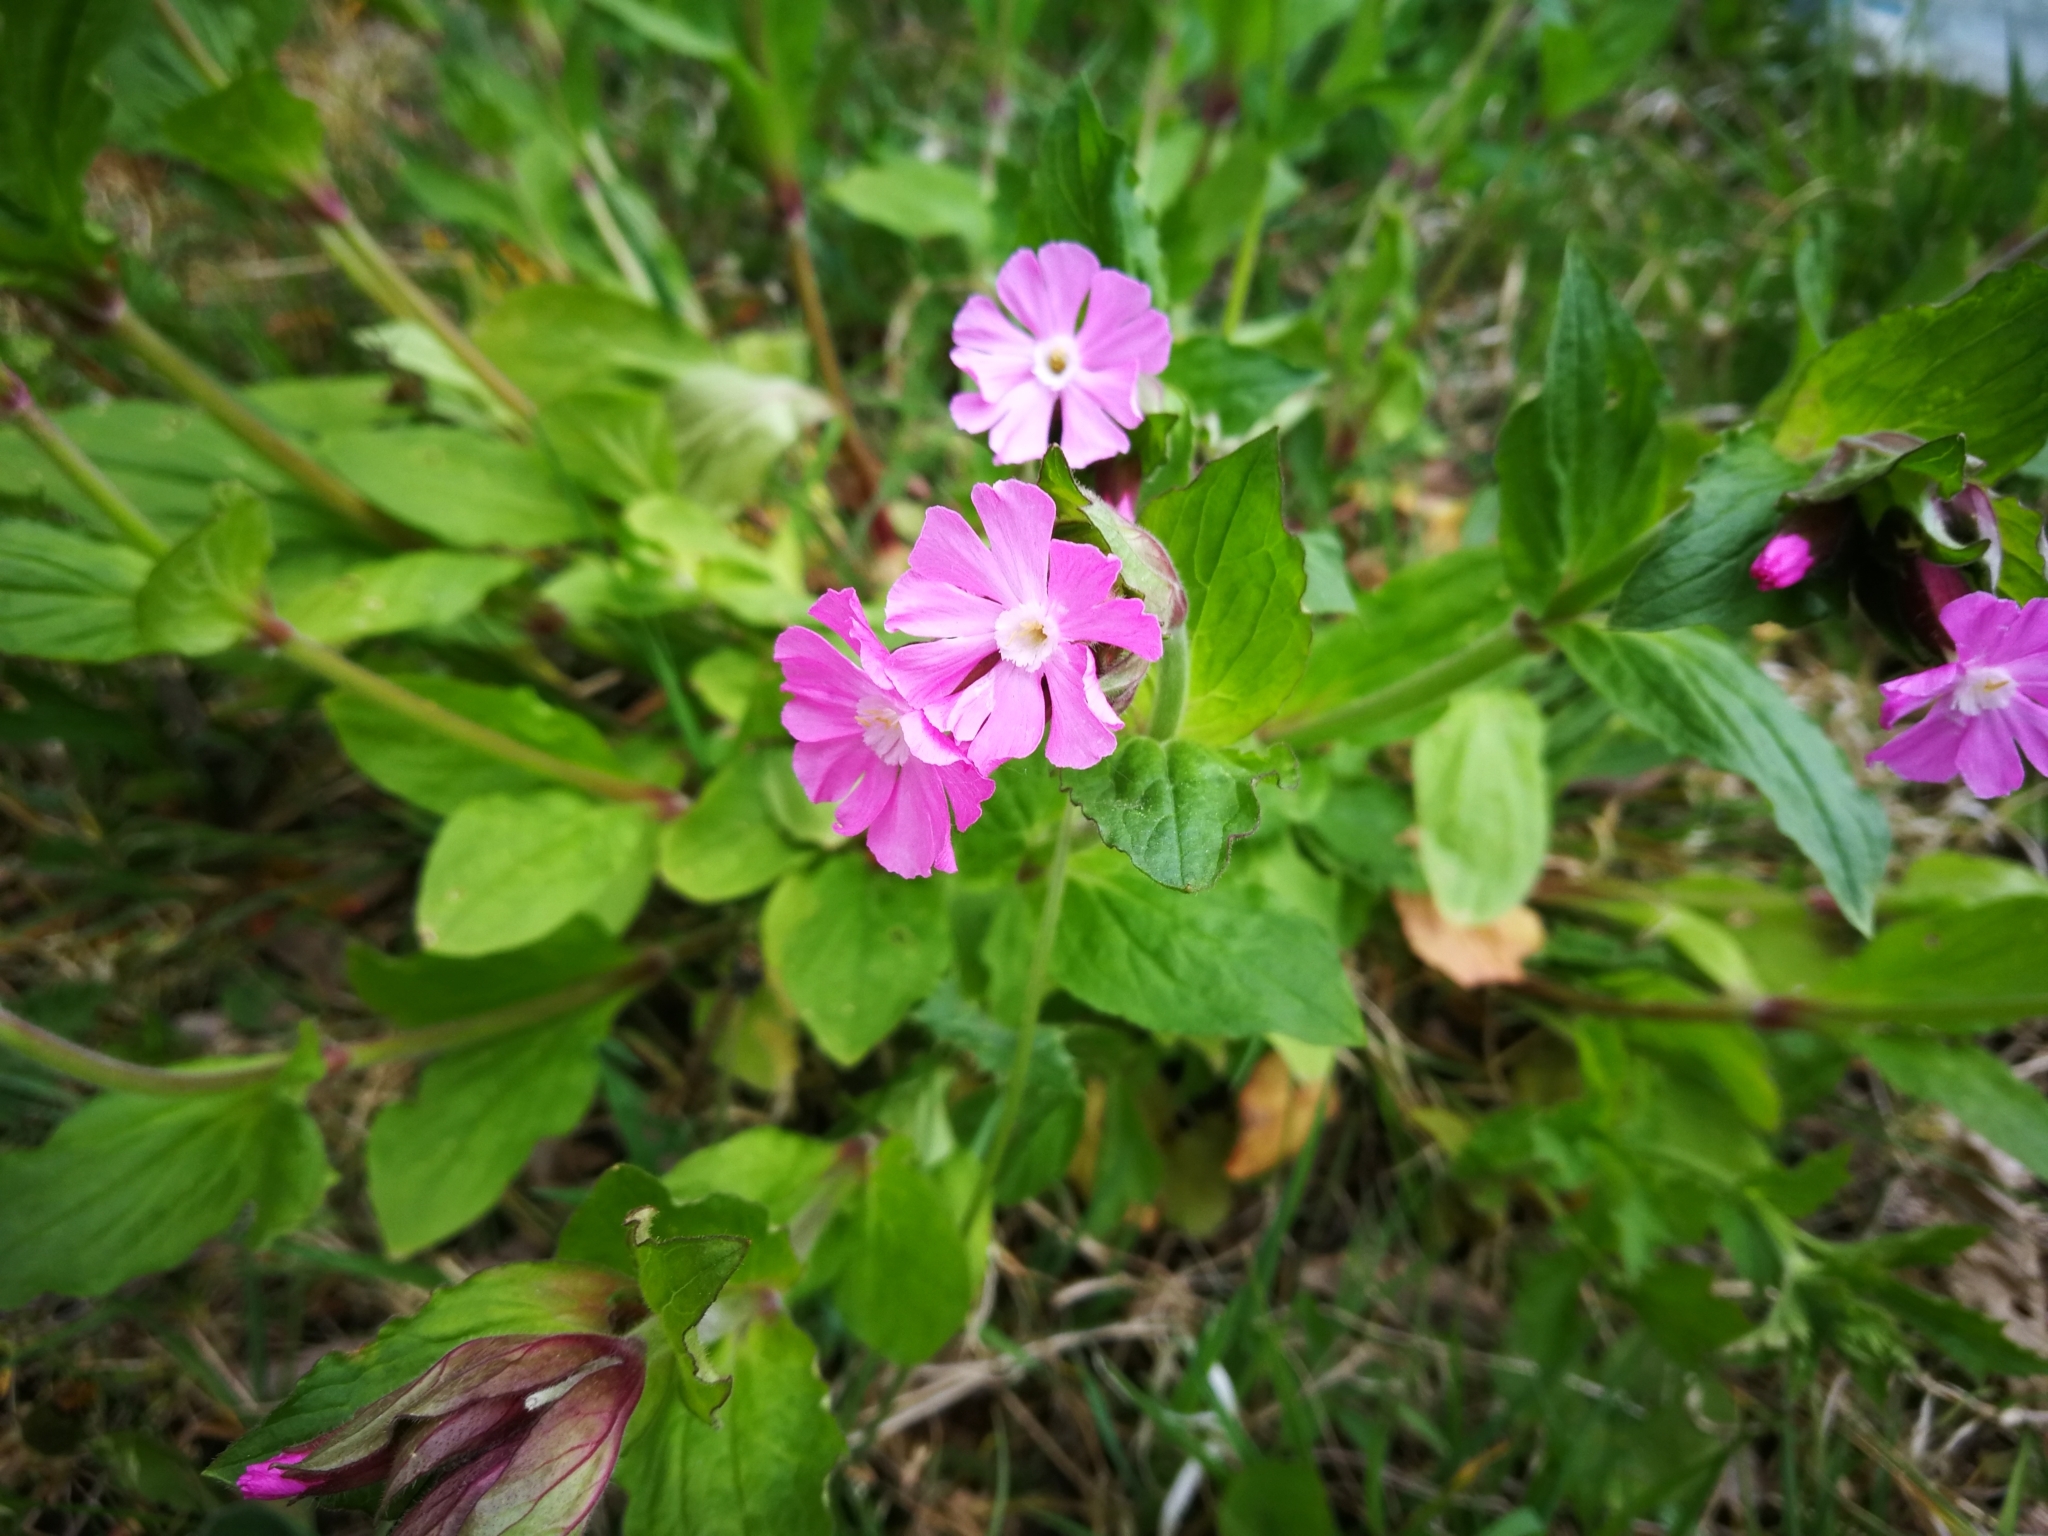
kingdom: Plantae
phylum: Tracheophyta
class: Magnoliopsida
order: Caryophyllales
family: Caryophyllaceae
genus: Silene
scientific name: Silene dioica
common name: Red campion
